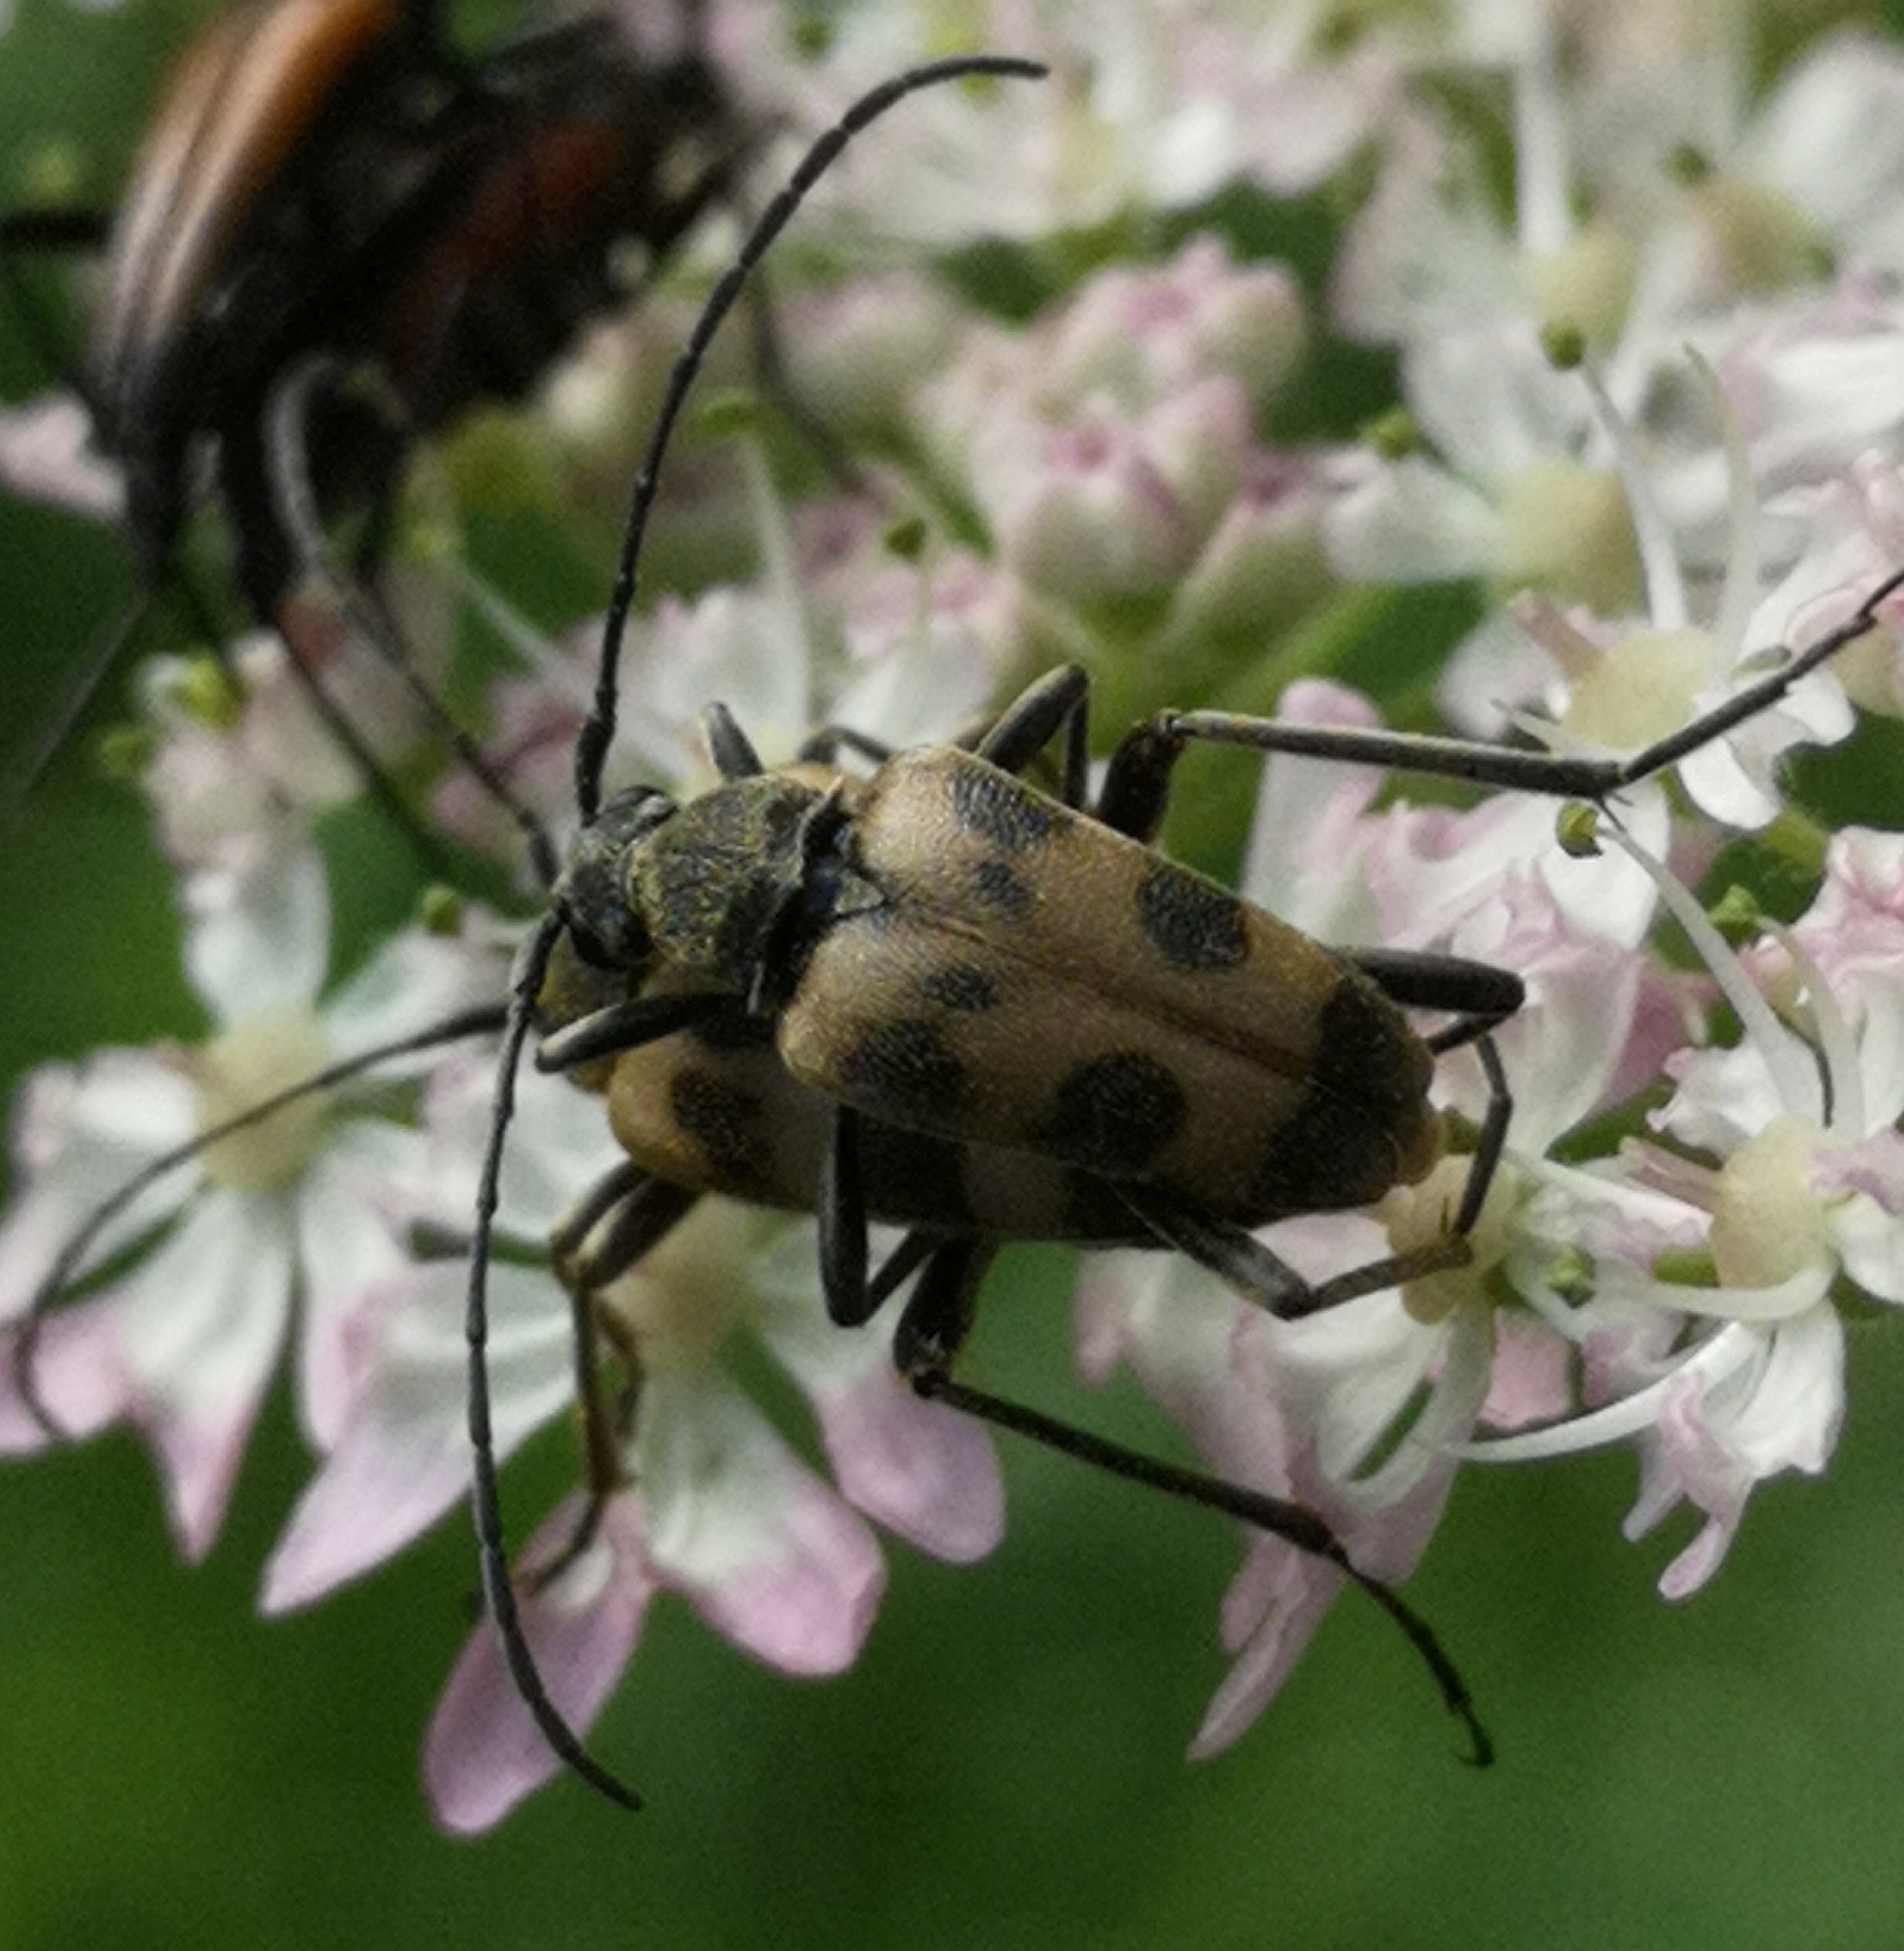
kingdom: Animalia
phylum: Arthropoda
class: Insecta
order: Coleoptera
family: Cerambycidae
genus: Pachytodes
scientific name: Pachytodes cerambyciformis
